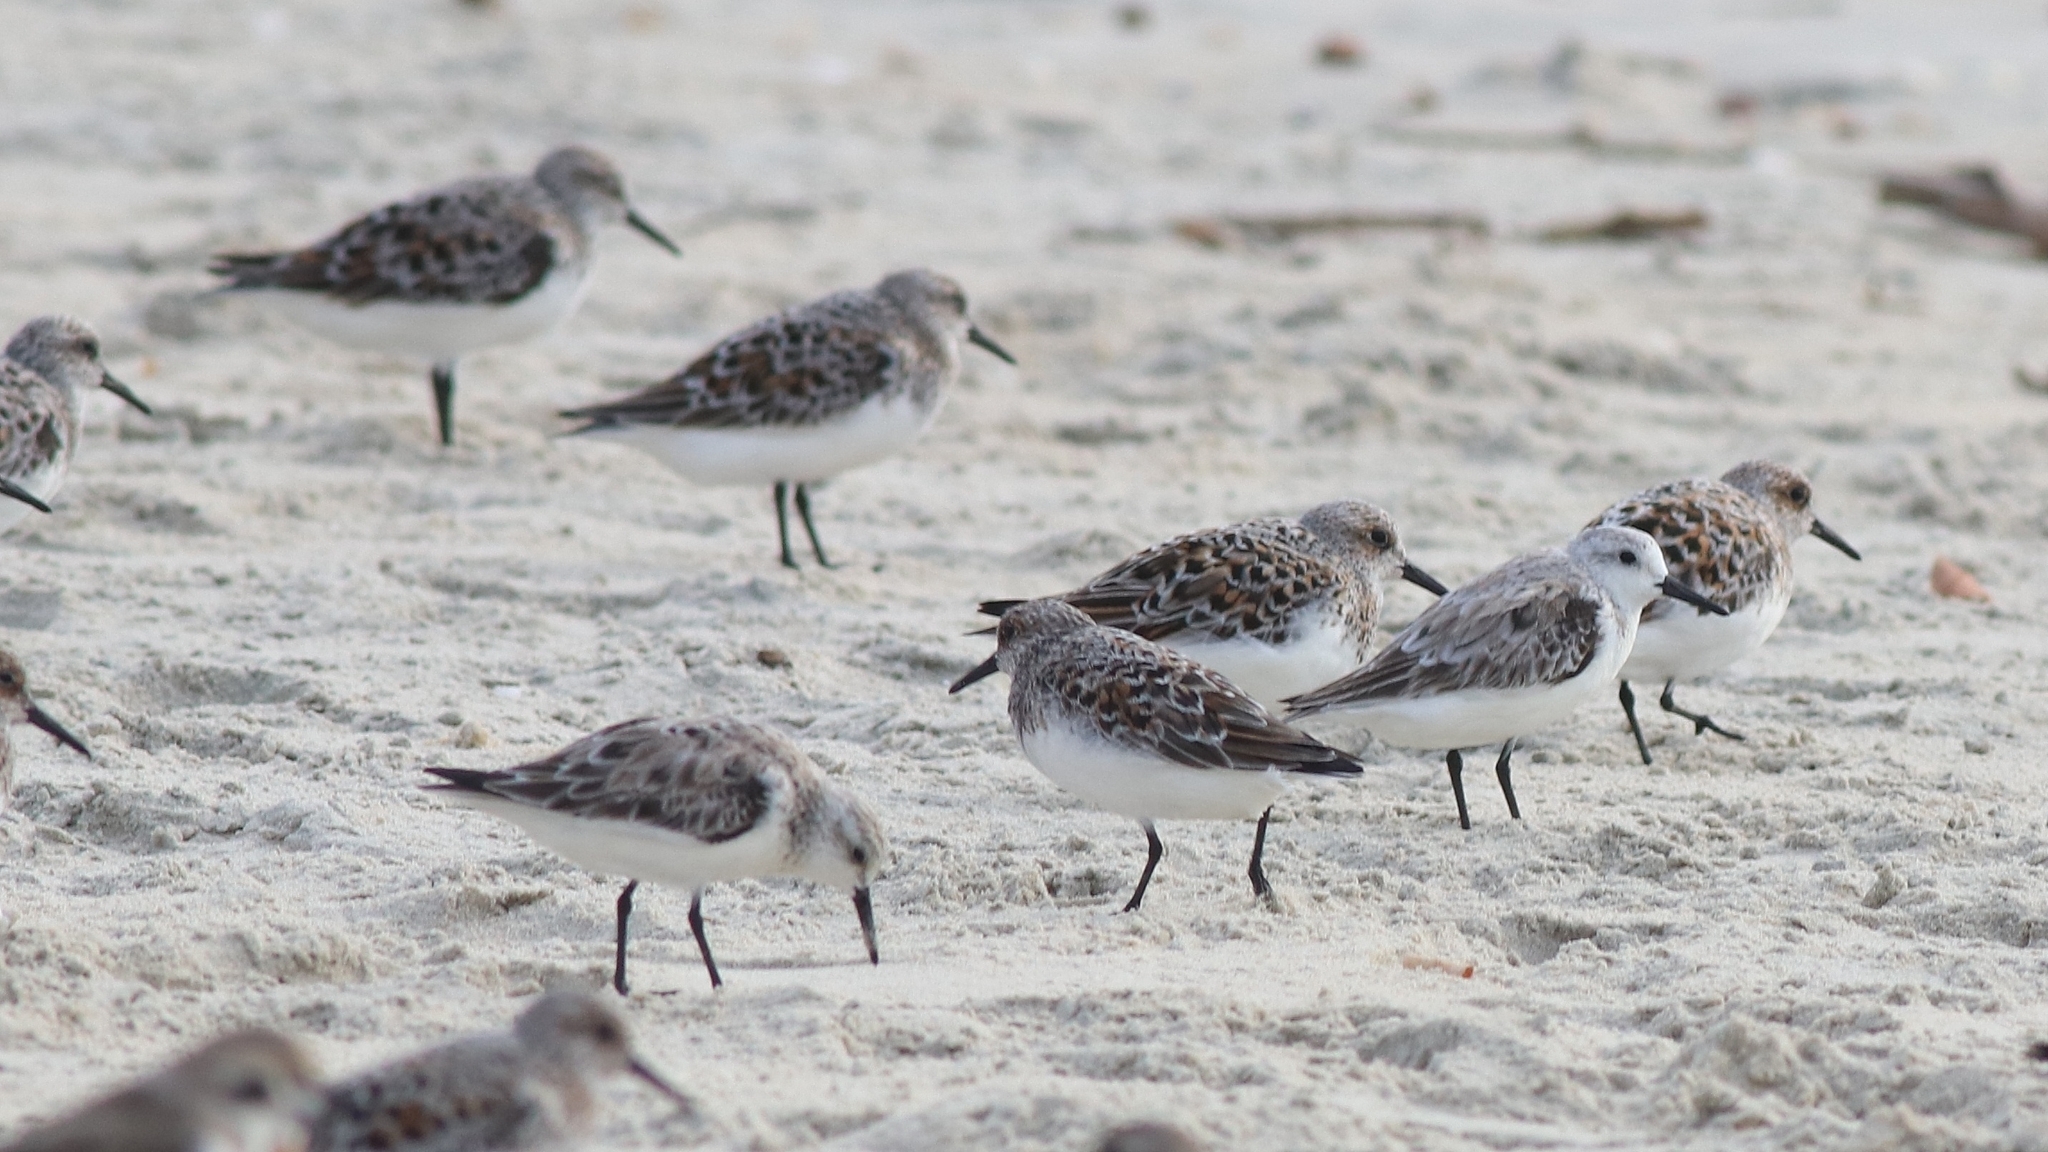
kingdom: Animalia
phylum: Chordata
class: Aves
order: Charadriiformes
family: Scolopacidae
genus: Calidris
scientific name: Calidris alba
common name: Sanderling
